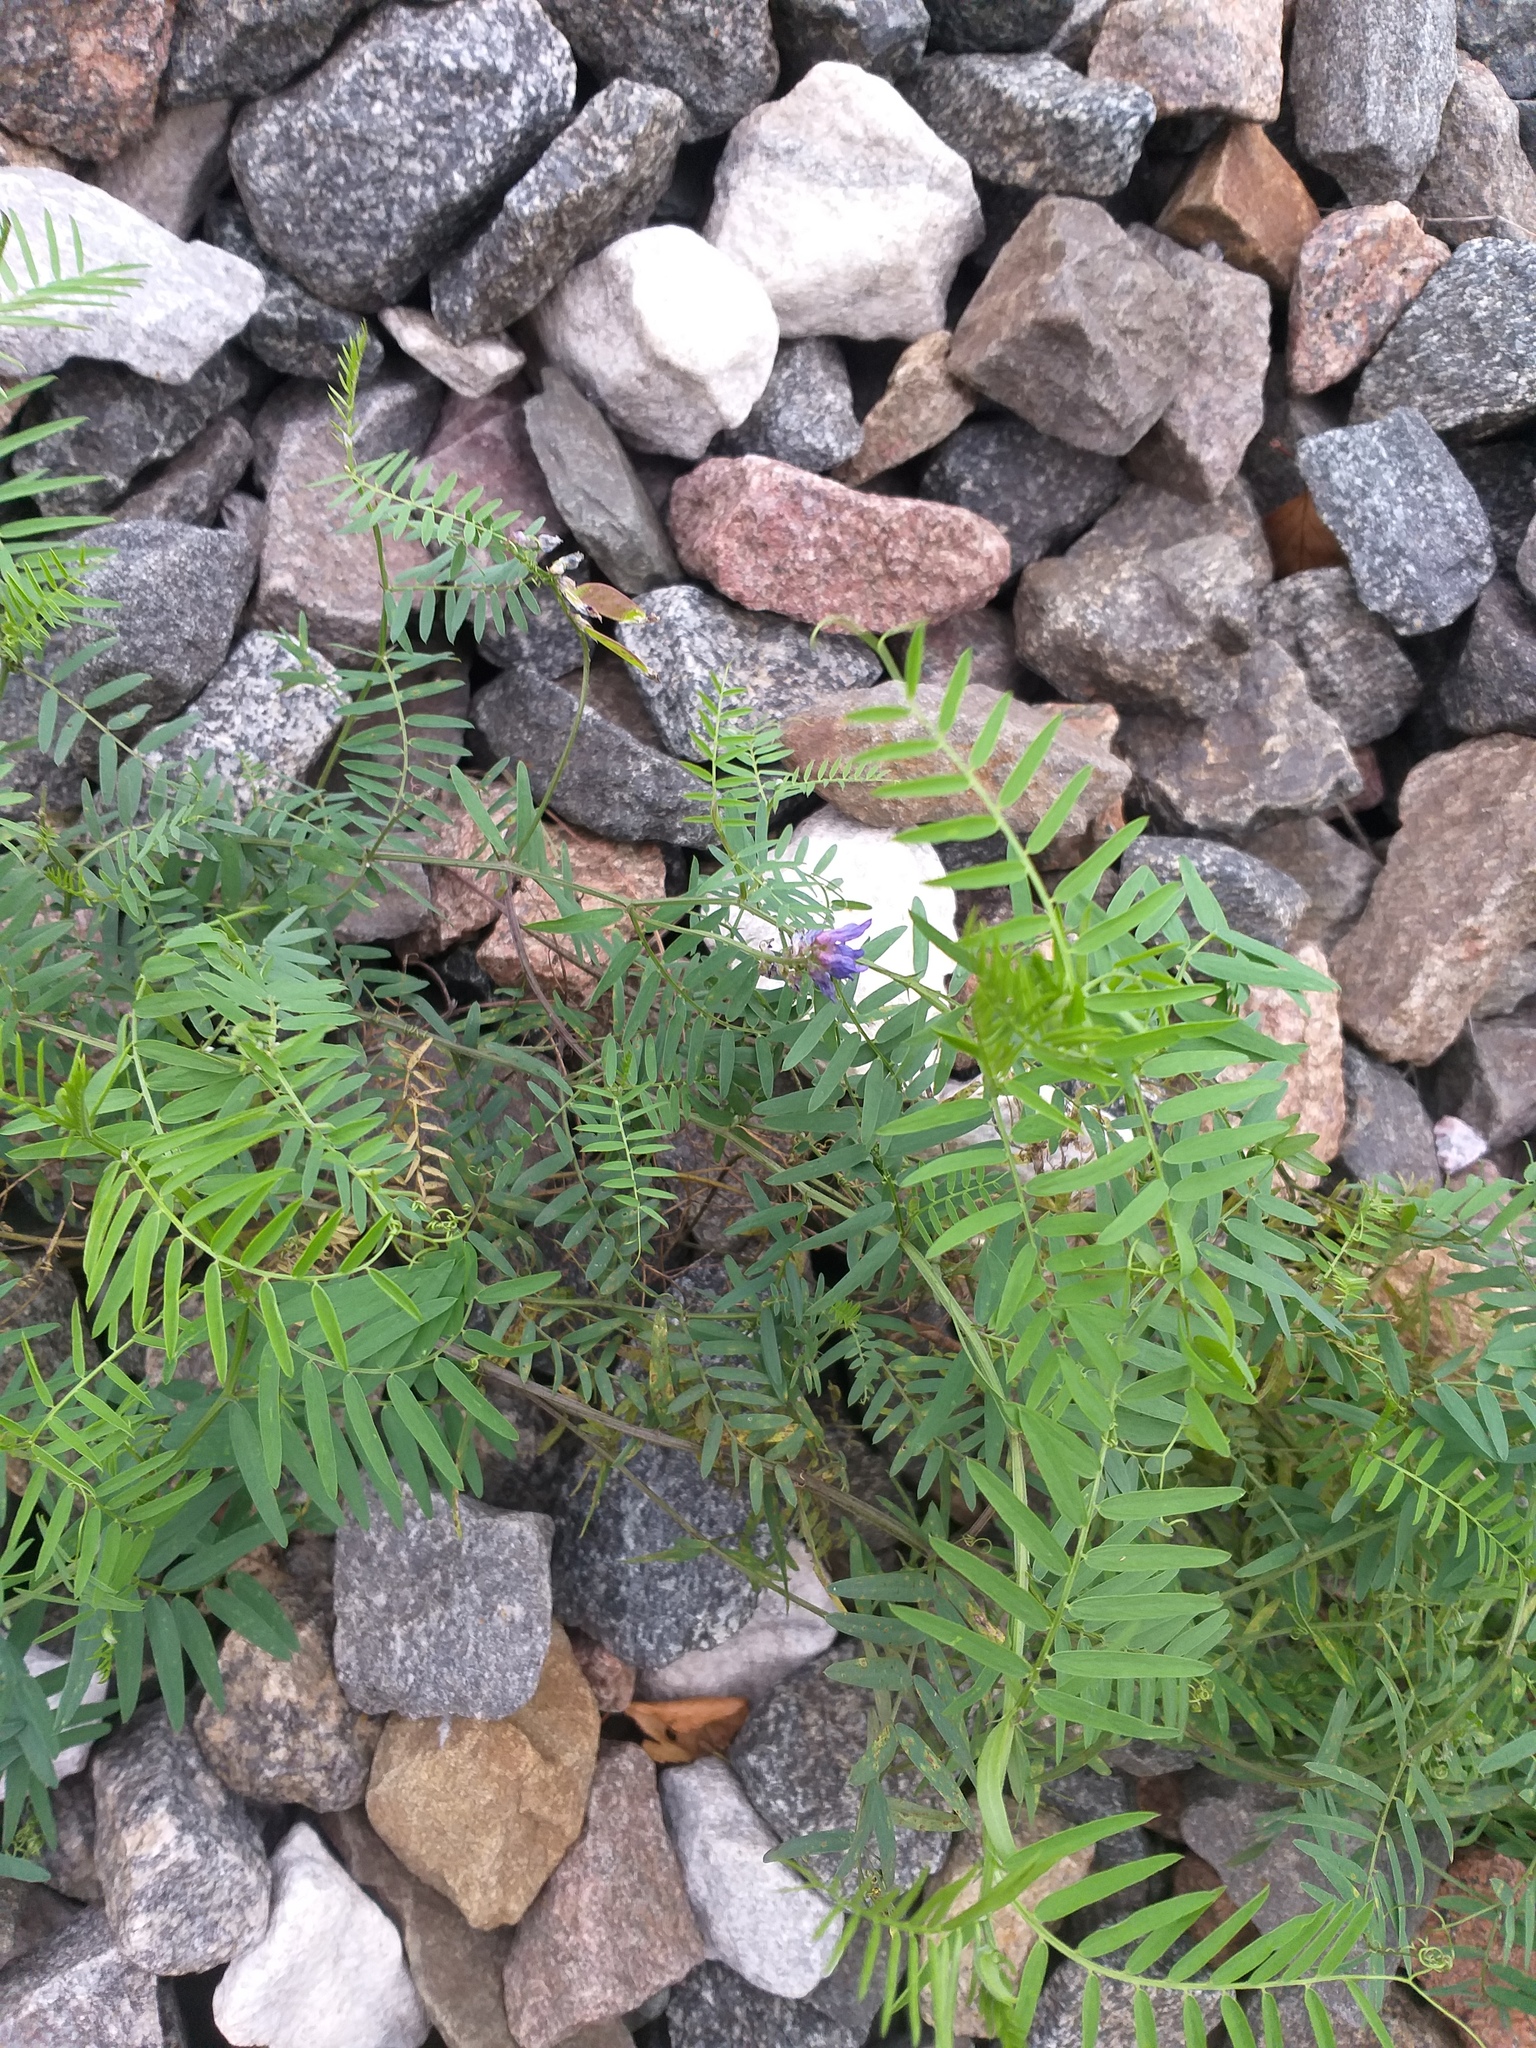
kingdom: Plantae
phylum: Tracheophyta
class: Magnoliopsida
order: Fabales
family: Fabaceae
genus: Vicia
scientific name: Vicia cracca
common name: Bird vetch
